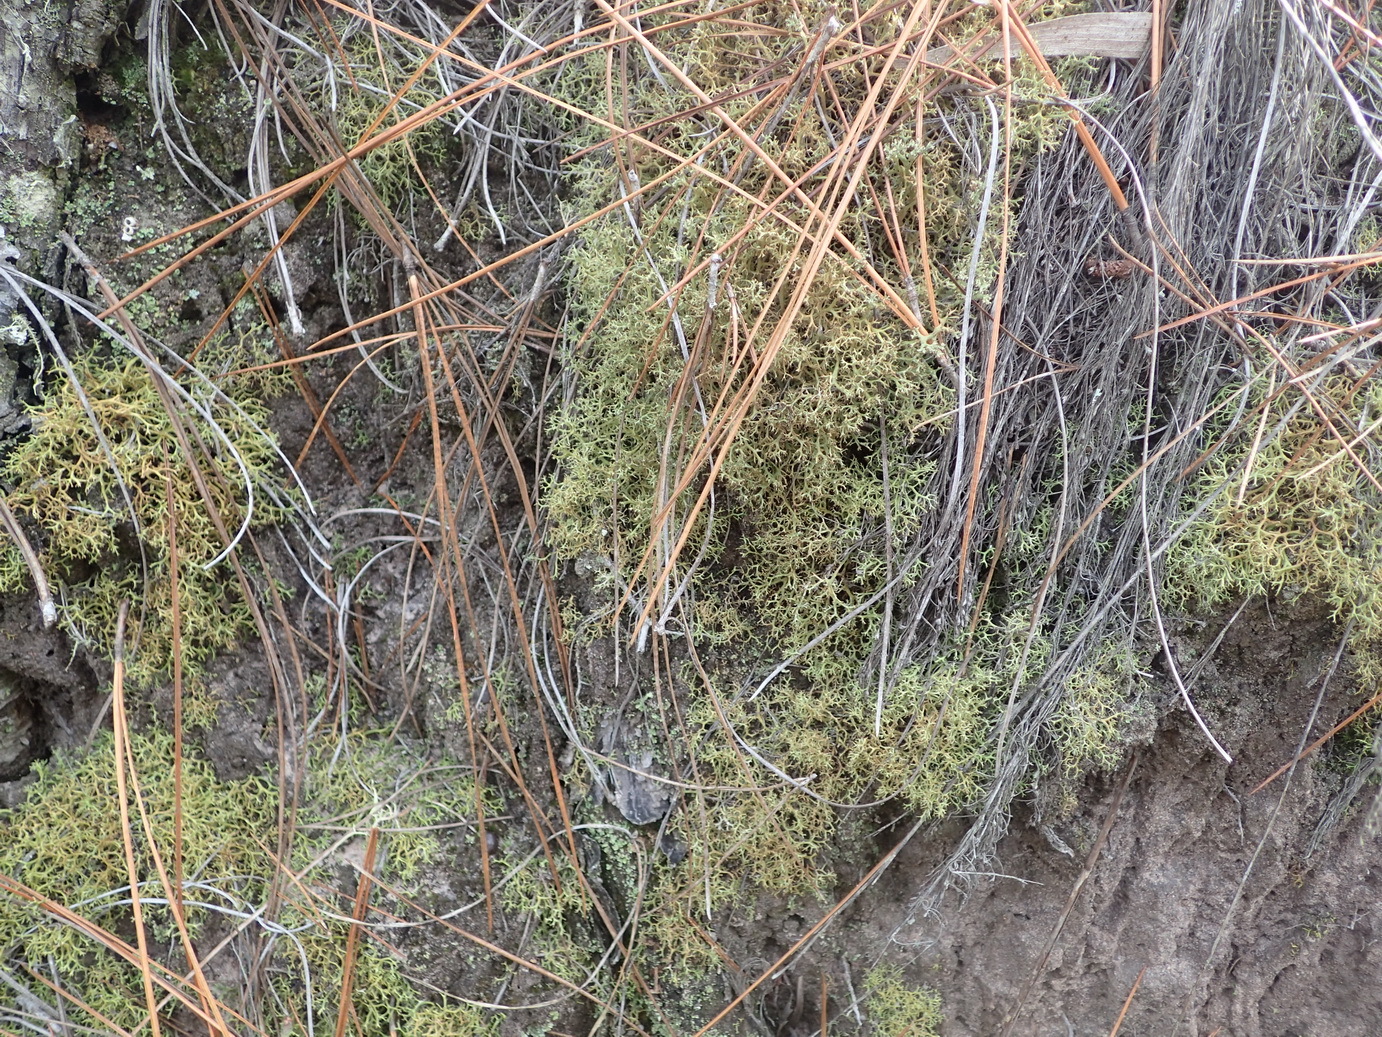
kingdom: Fungi
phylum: Ascomycota
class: Lecanoromycetes
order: Lecanorales
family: Cladoniaceae
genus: Cladia
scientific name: Cladia aggregata
